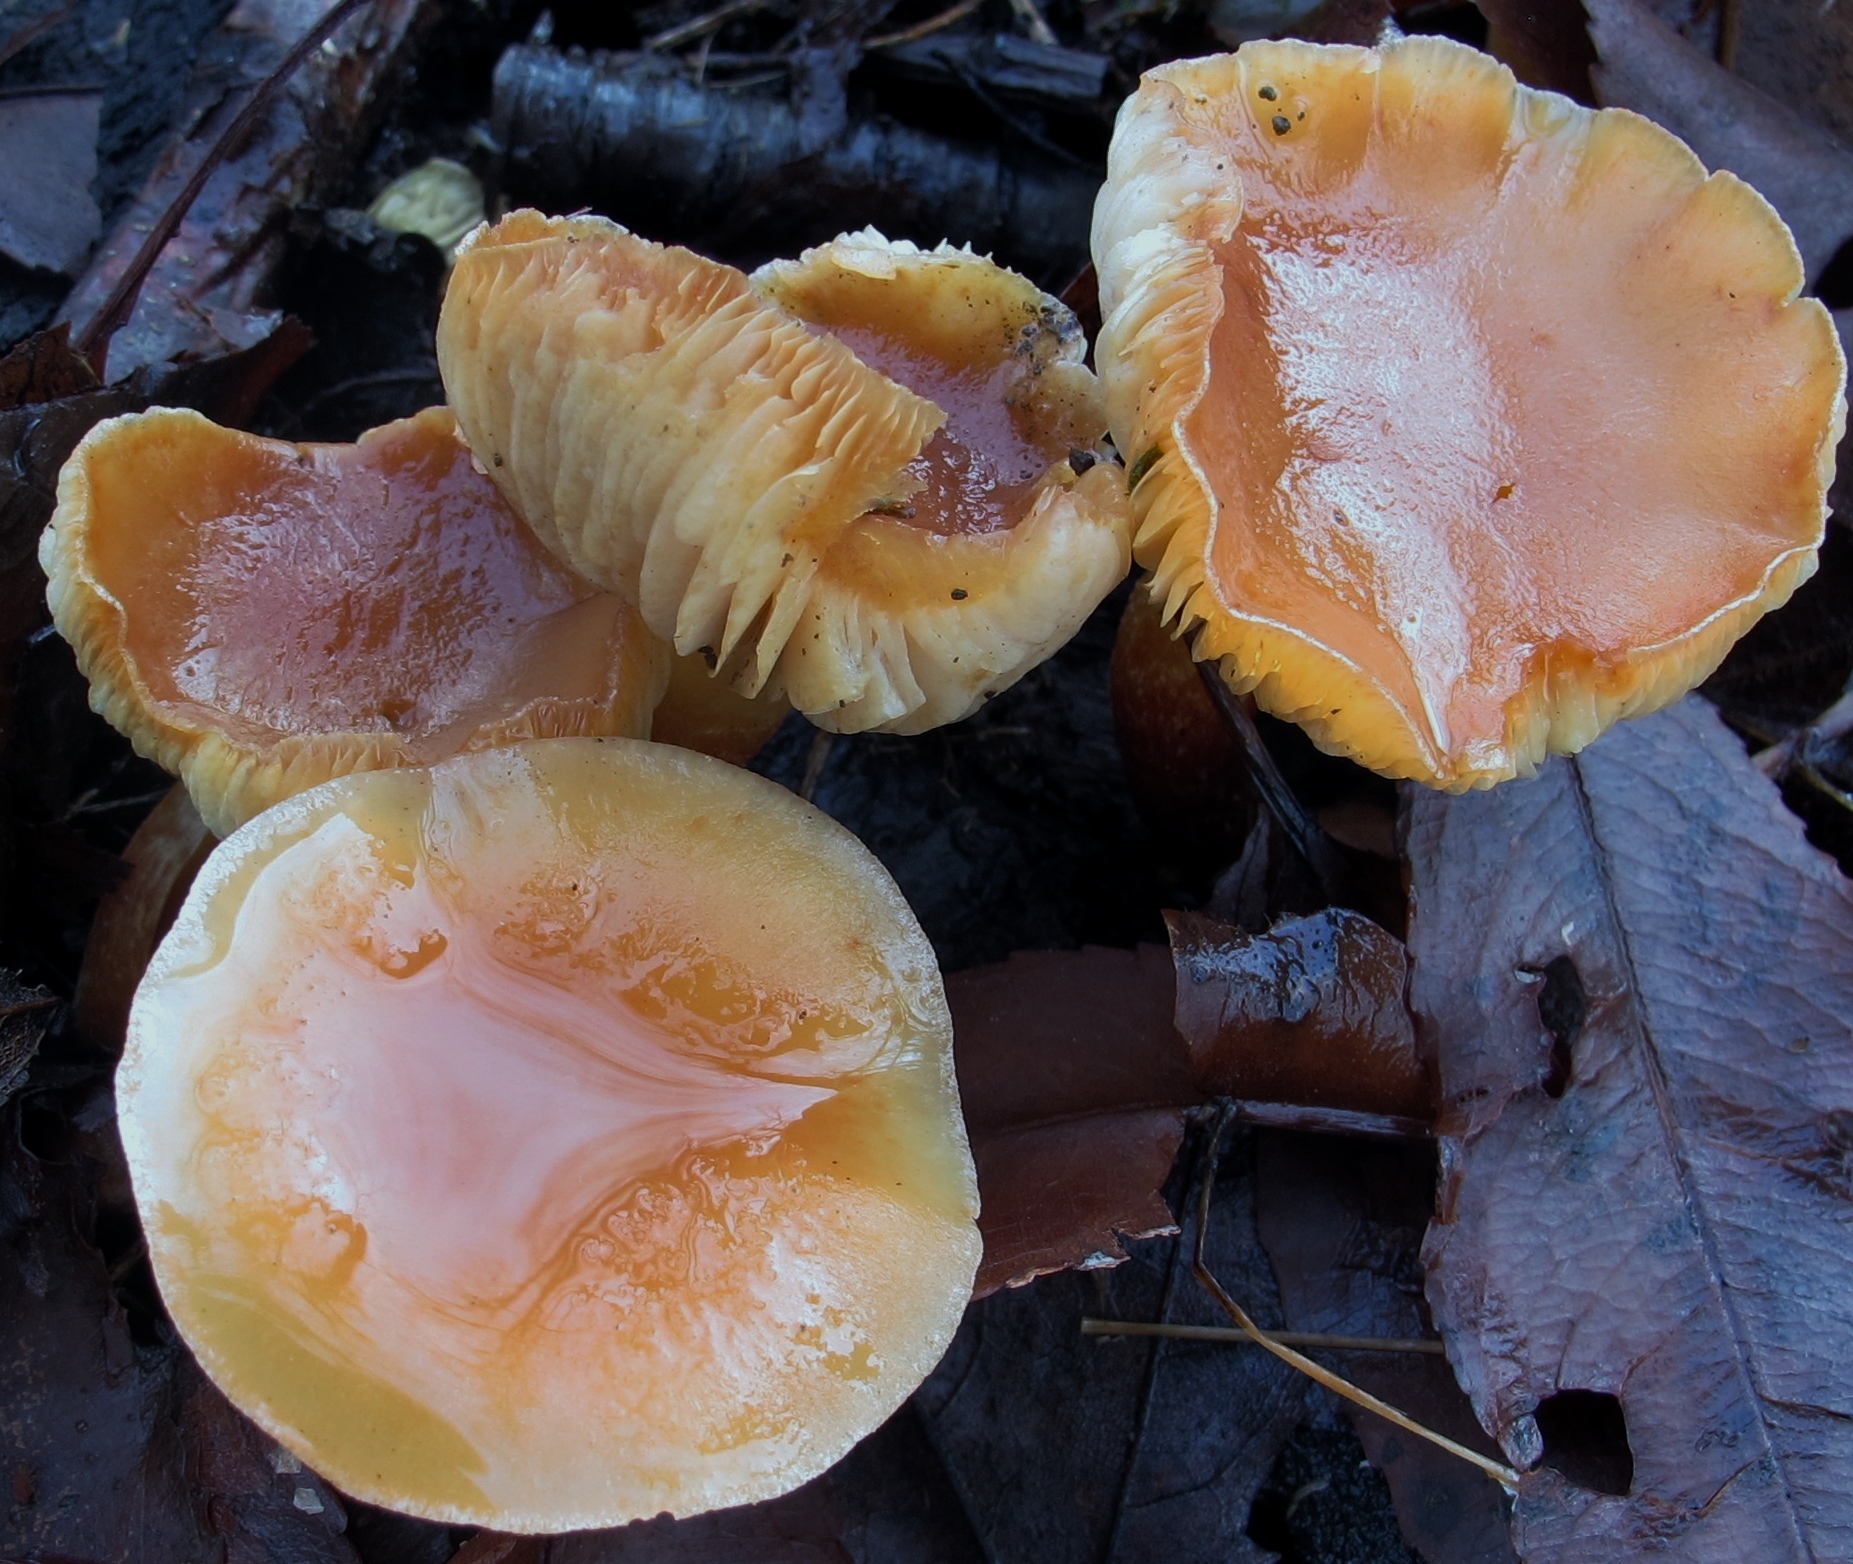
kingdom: Fungi
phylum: Basidiomycota
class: Agaricomycetes
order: Agaricales
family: Strophariaceae
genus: Hypholoma
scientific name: Hypholoma lateritium
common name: Brick caps
